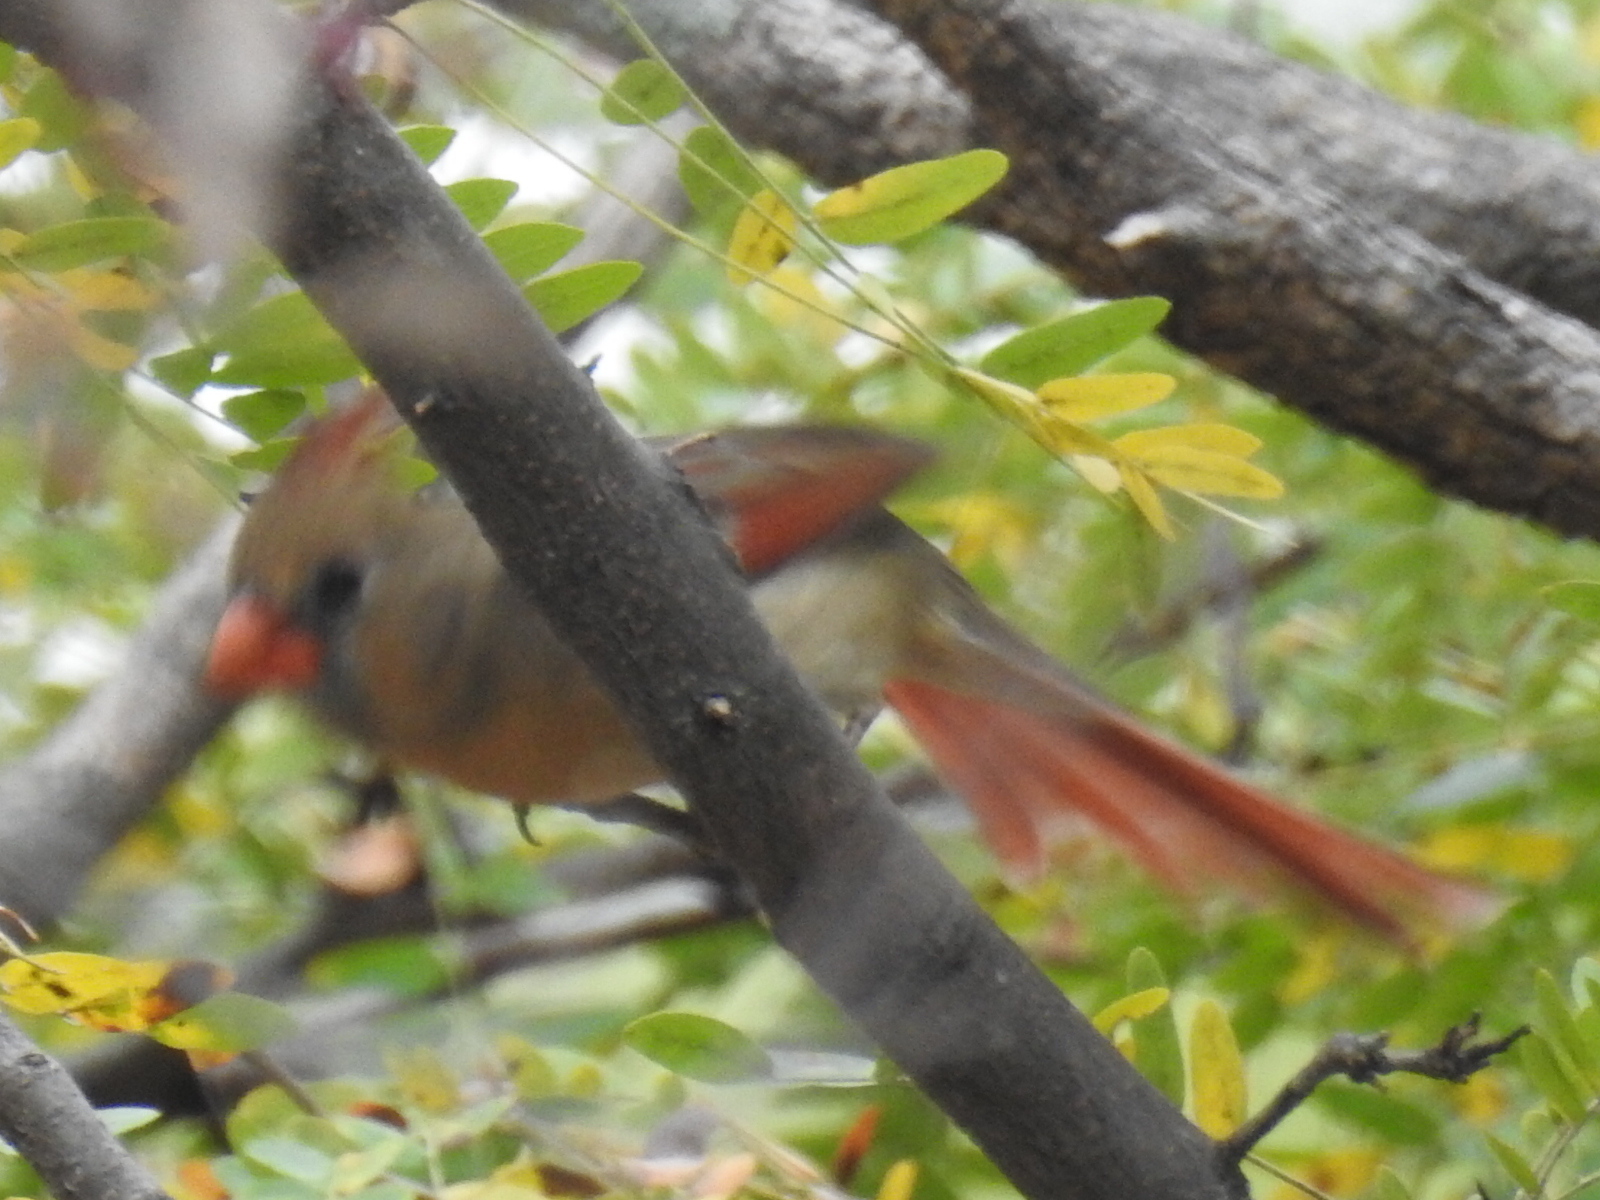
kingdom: Animalia
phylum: Chordata
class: Aves
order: Passeriformes
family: Cardinalidae
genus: Cardinalis
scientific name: Cardinalis cardinalis
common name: Northern cardinal
